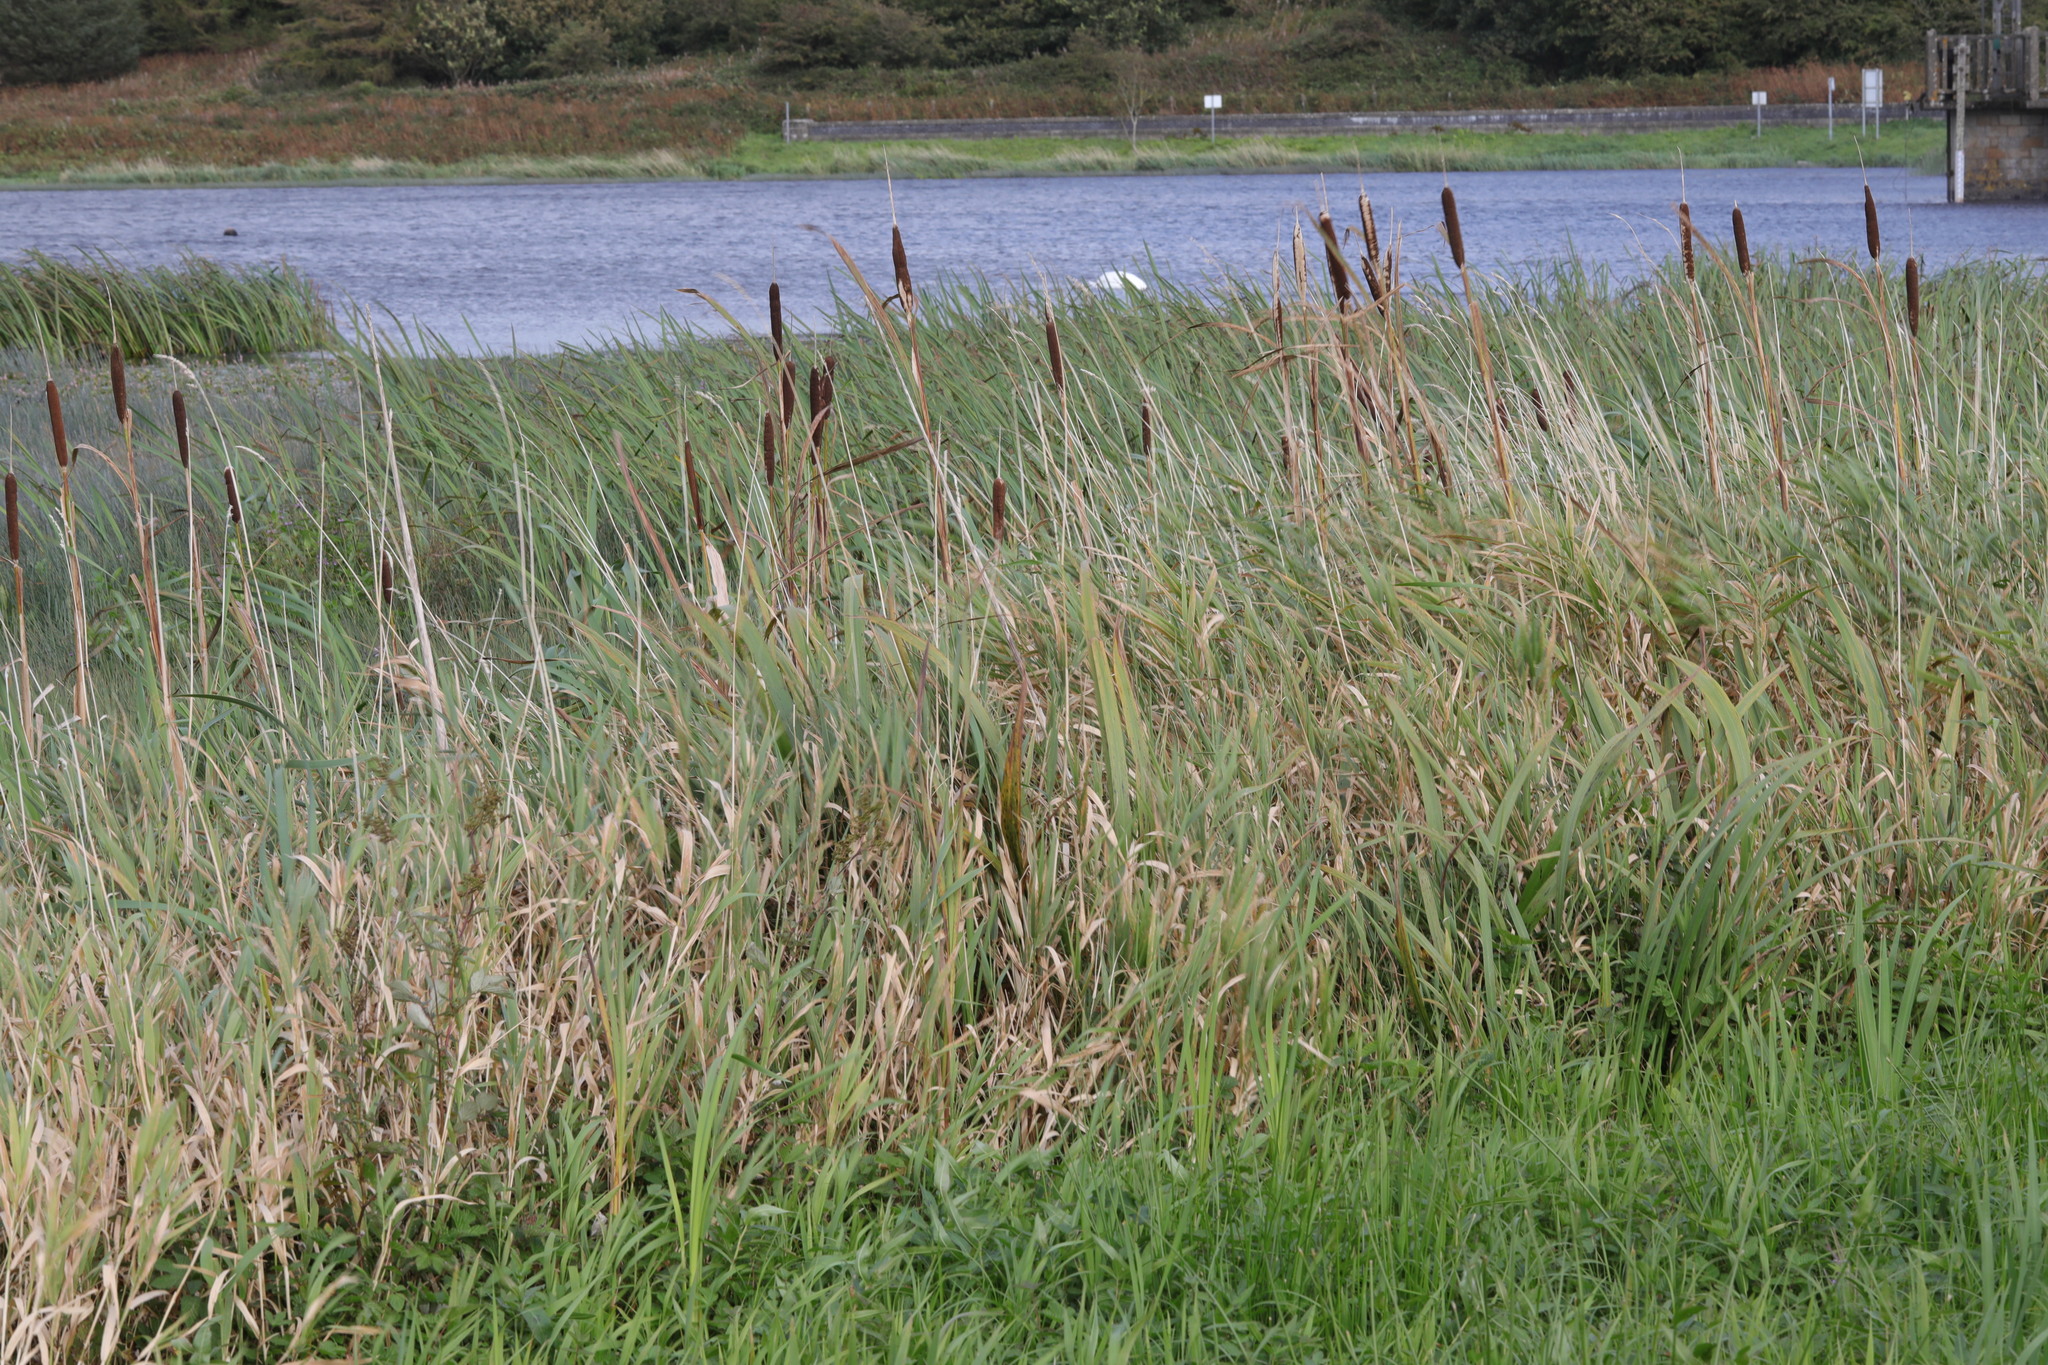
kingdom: Plantae
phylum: Tracheophyta
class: Liliopsida
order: Poales
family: Typhaceae
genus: Typha
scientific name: Typha latifolia
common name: Broadleaf cattail
